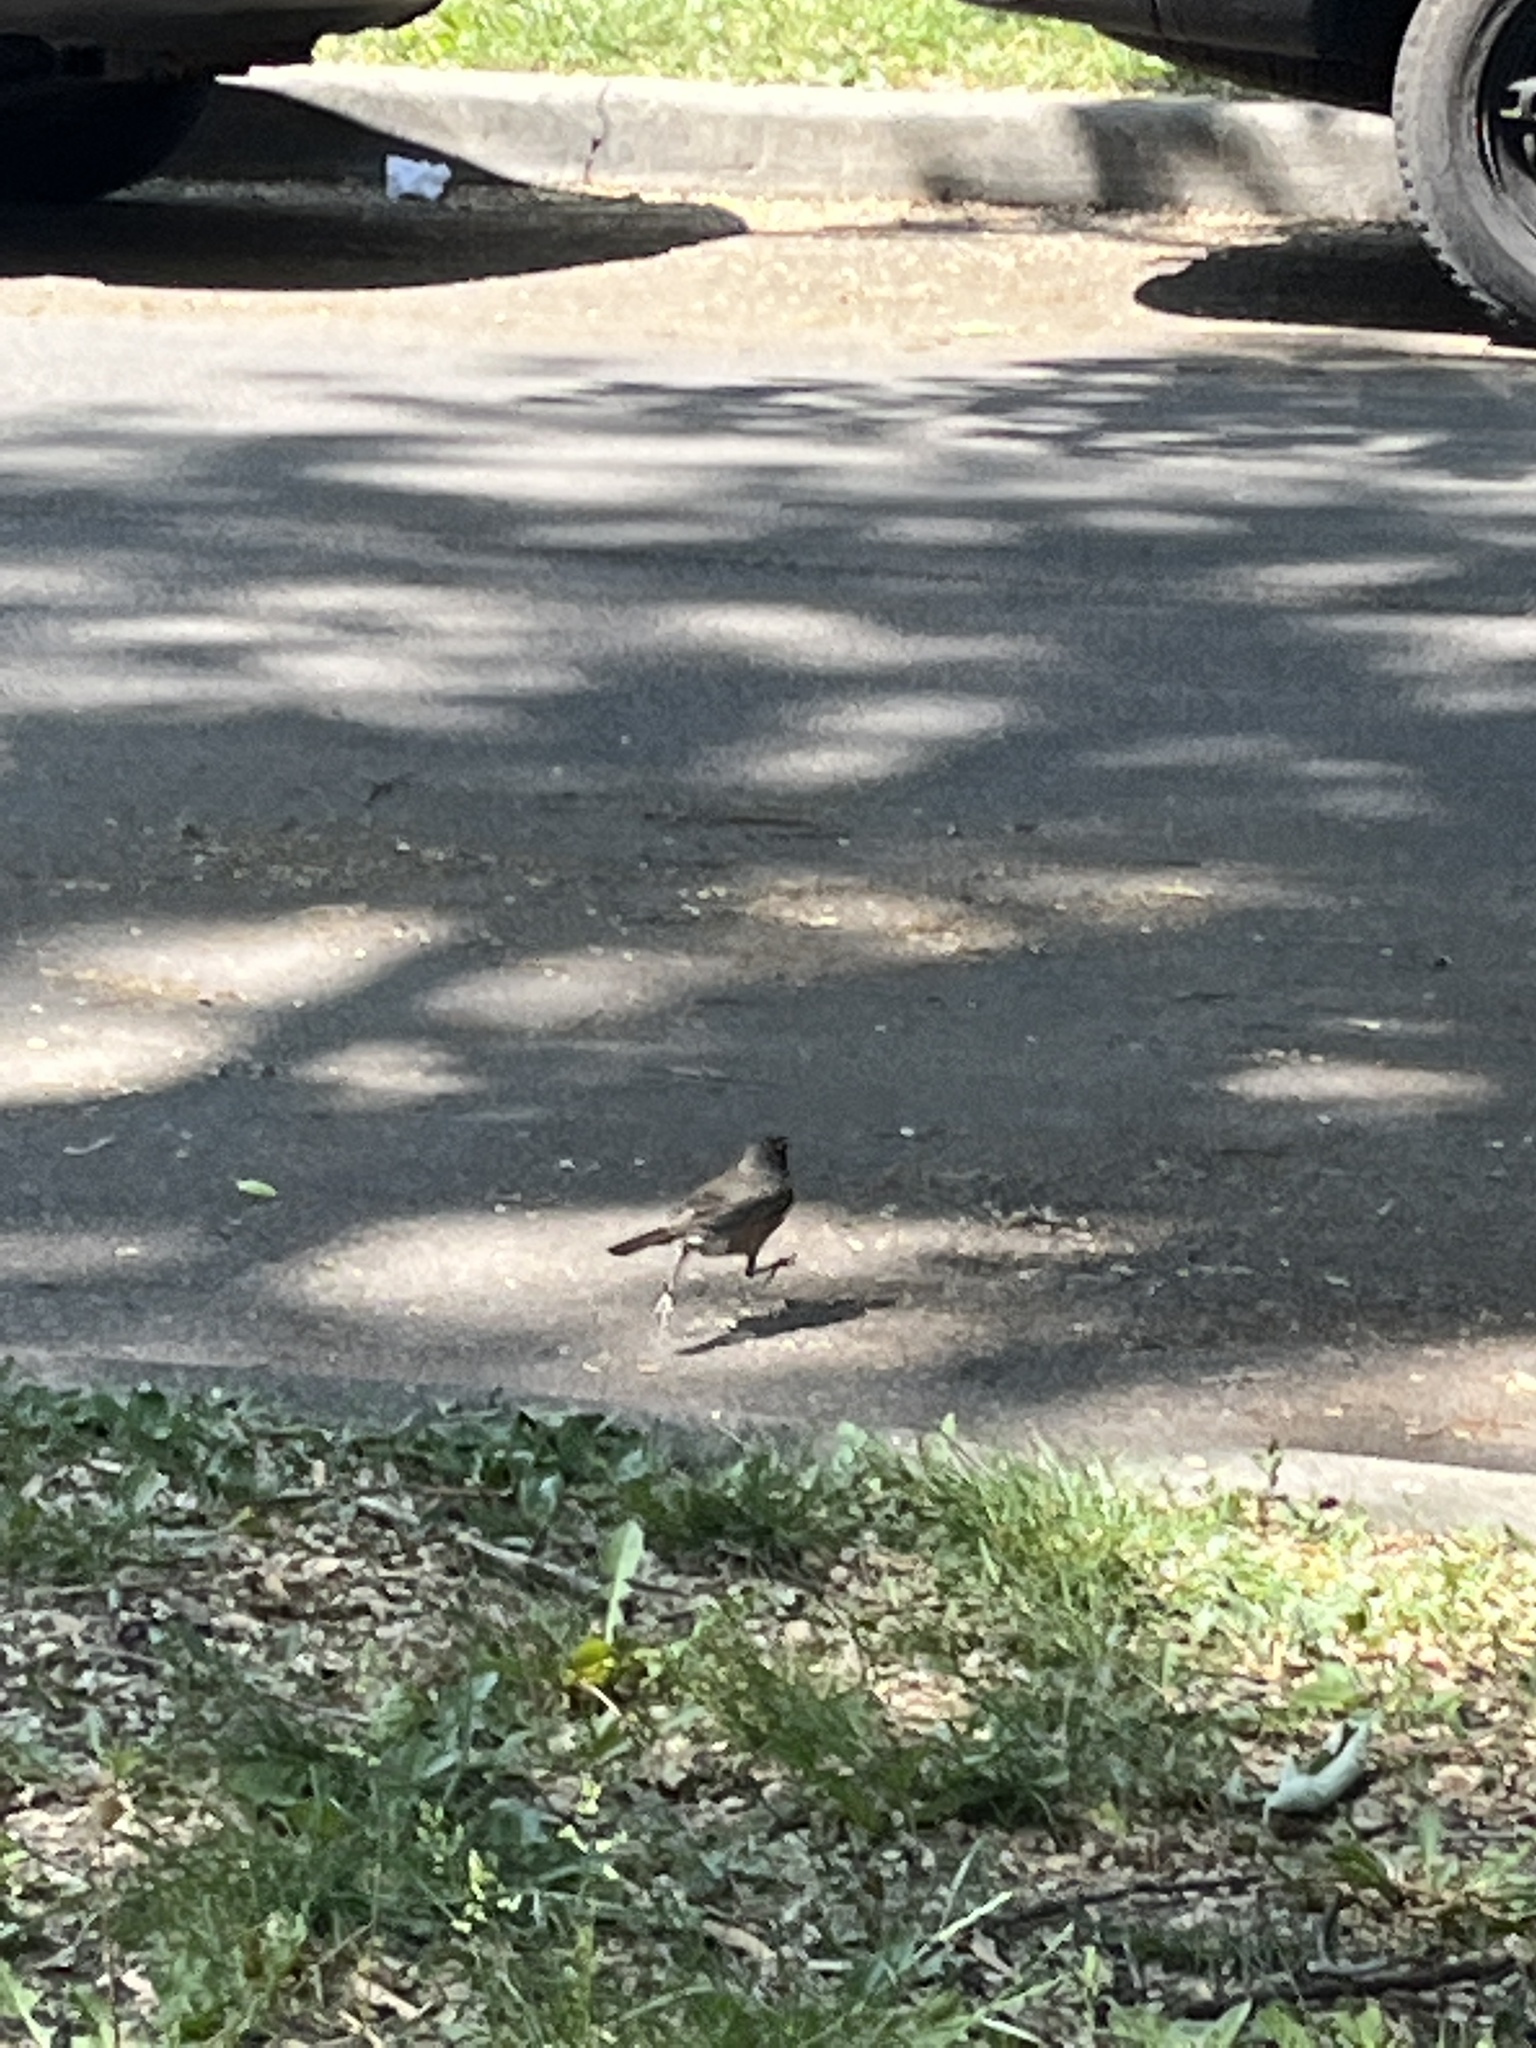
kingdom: Animalia
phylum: Chordata
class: Aves
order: Passeriformes
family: Turdidae
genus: Turdus
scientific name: Turdus migratorius
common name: American robin
